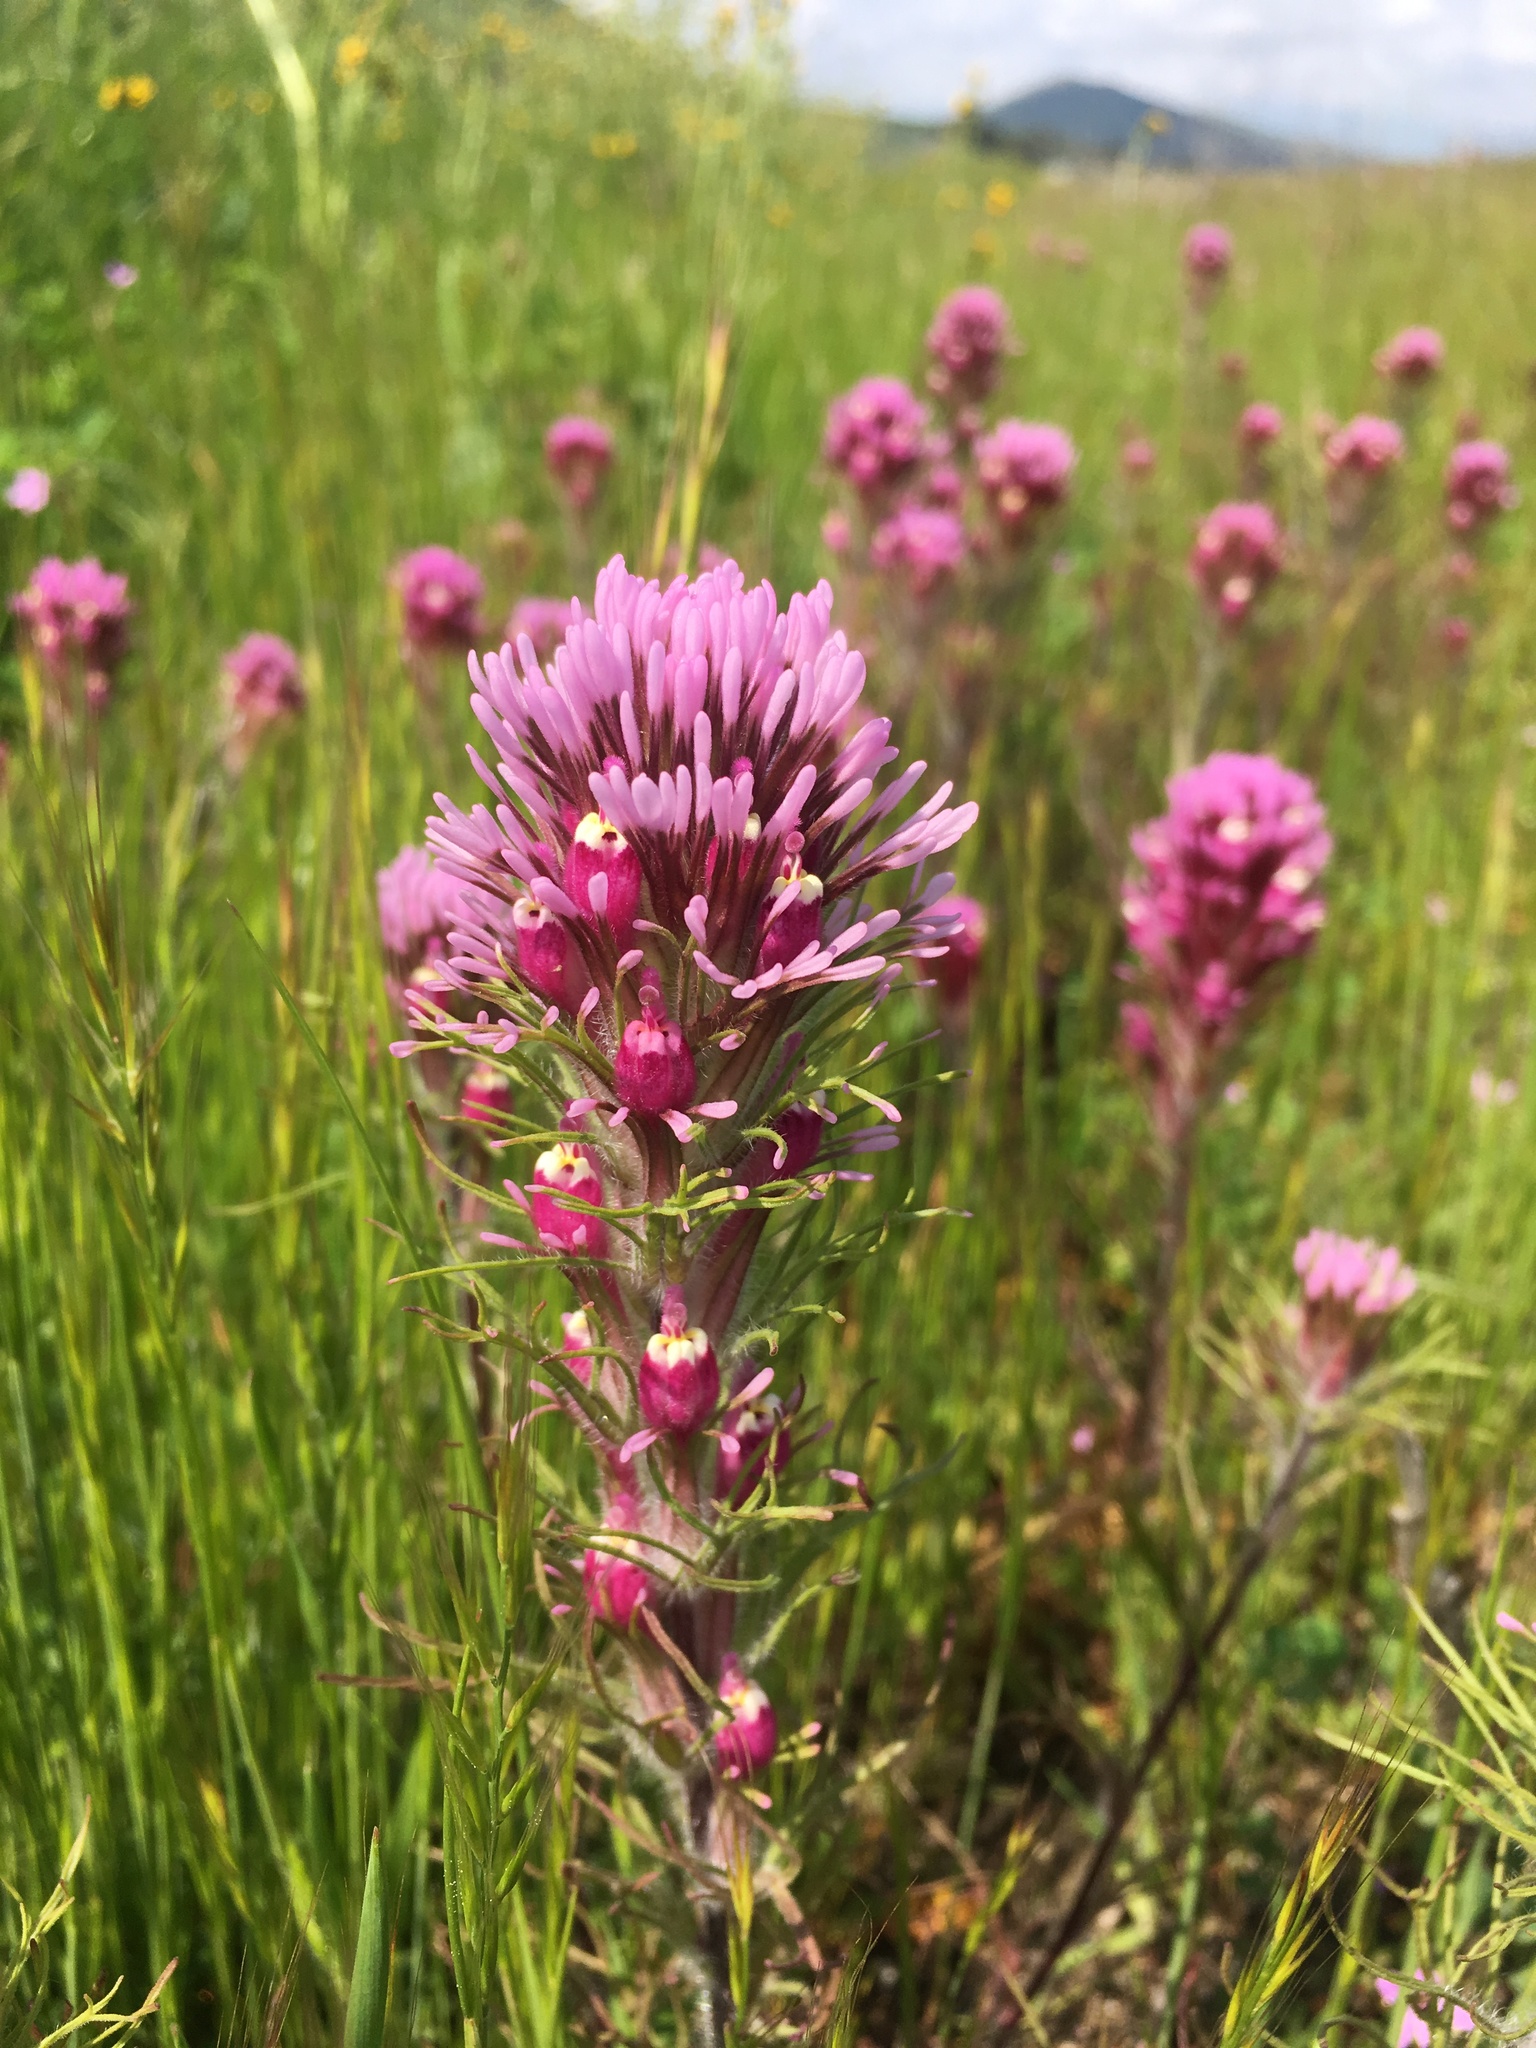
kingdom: Plantae
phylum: Tracheophyta
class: Magnoliopsida
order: Lamiales
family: Orobanchaceae
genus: Castilleja
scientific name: Castilleja exserta
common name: Purple owl-clover
